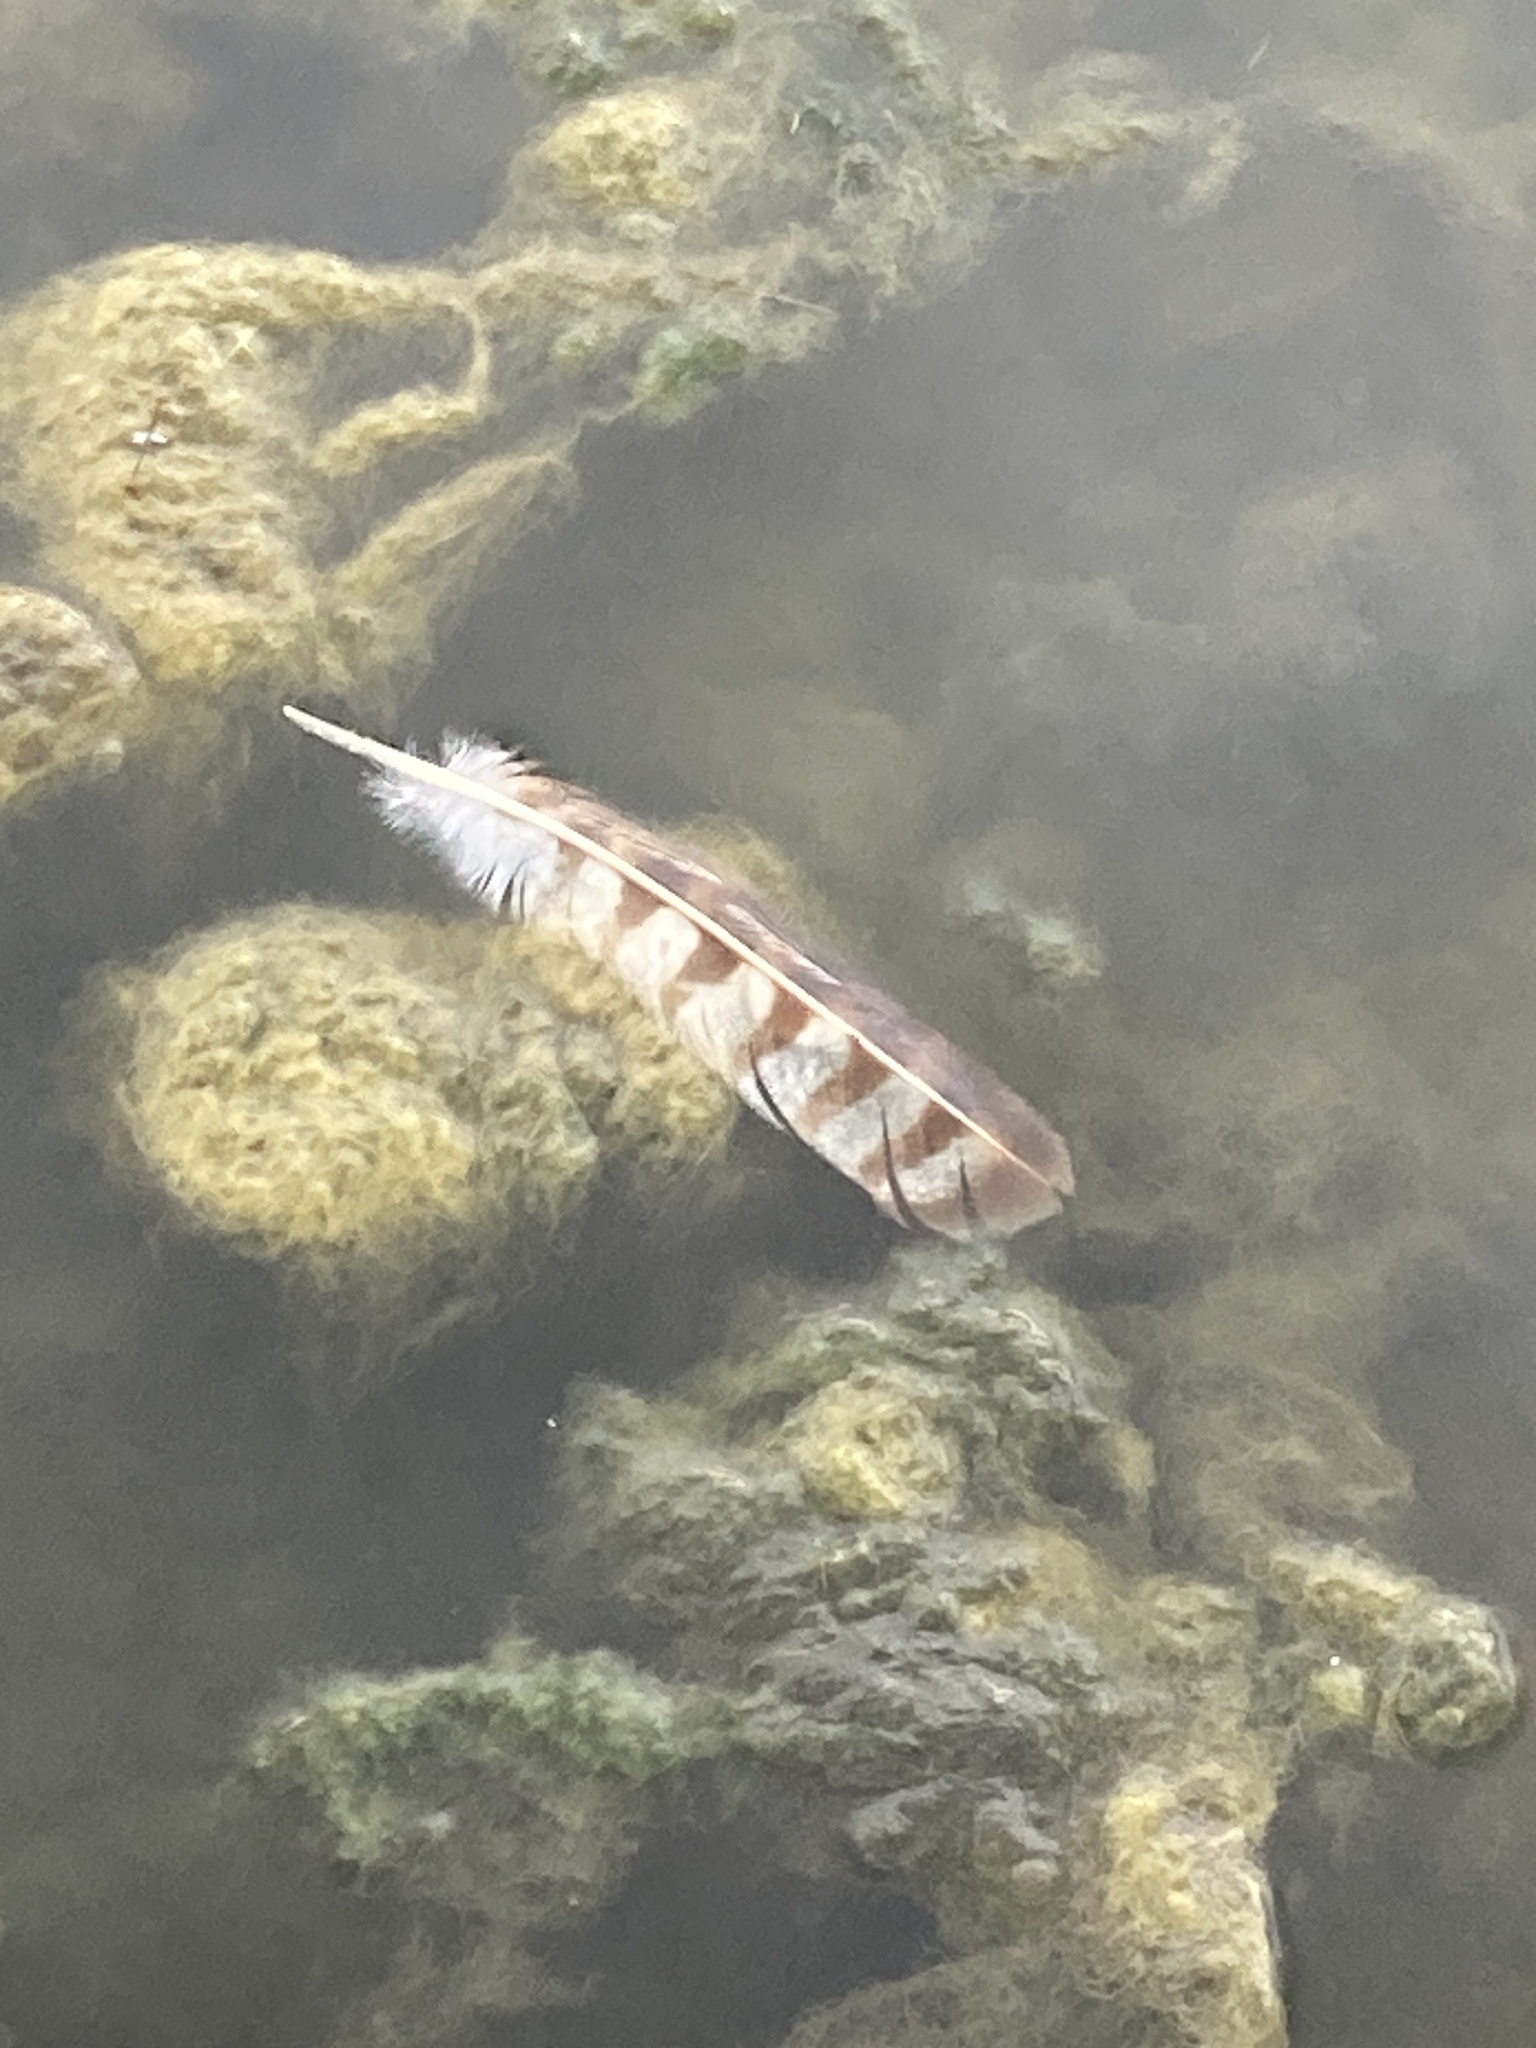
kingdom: Animalia
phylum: Chordata
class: Aves
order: Accipitriformes
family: Pandionidae
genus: Pandion
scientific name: Pandion haliaetus
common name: Osprey
